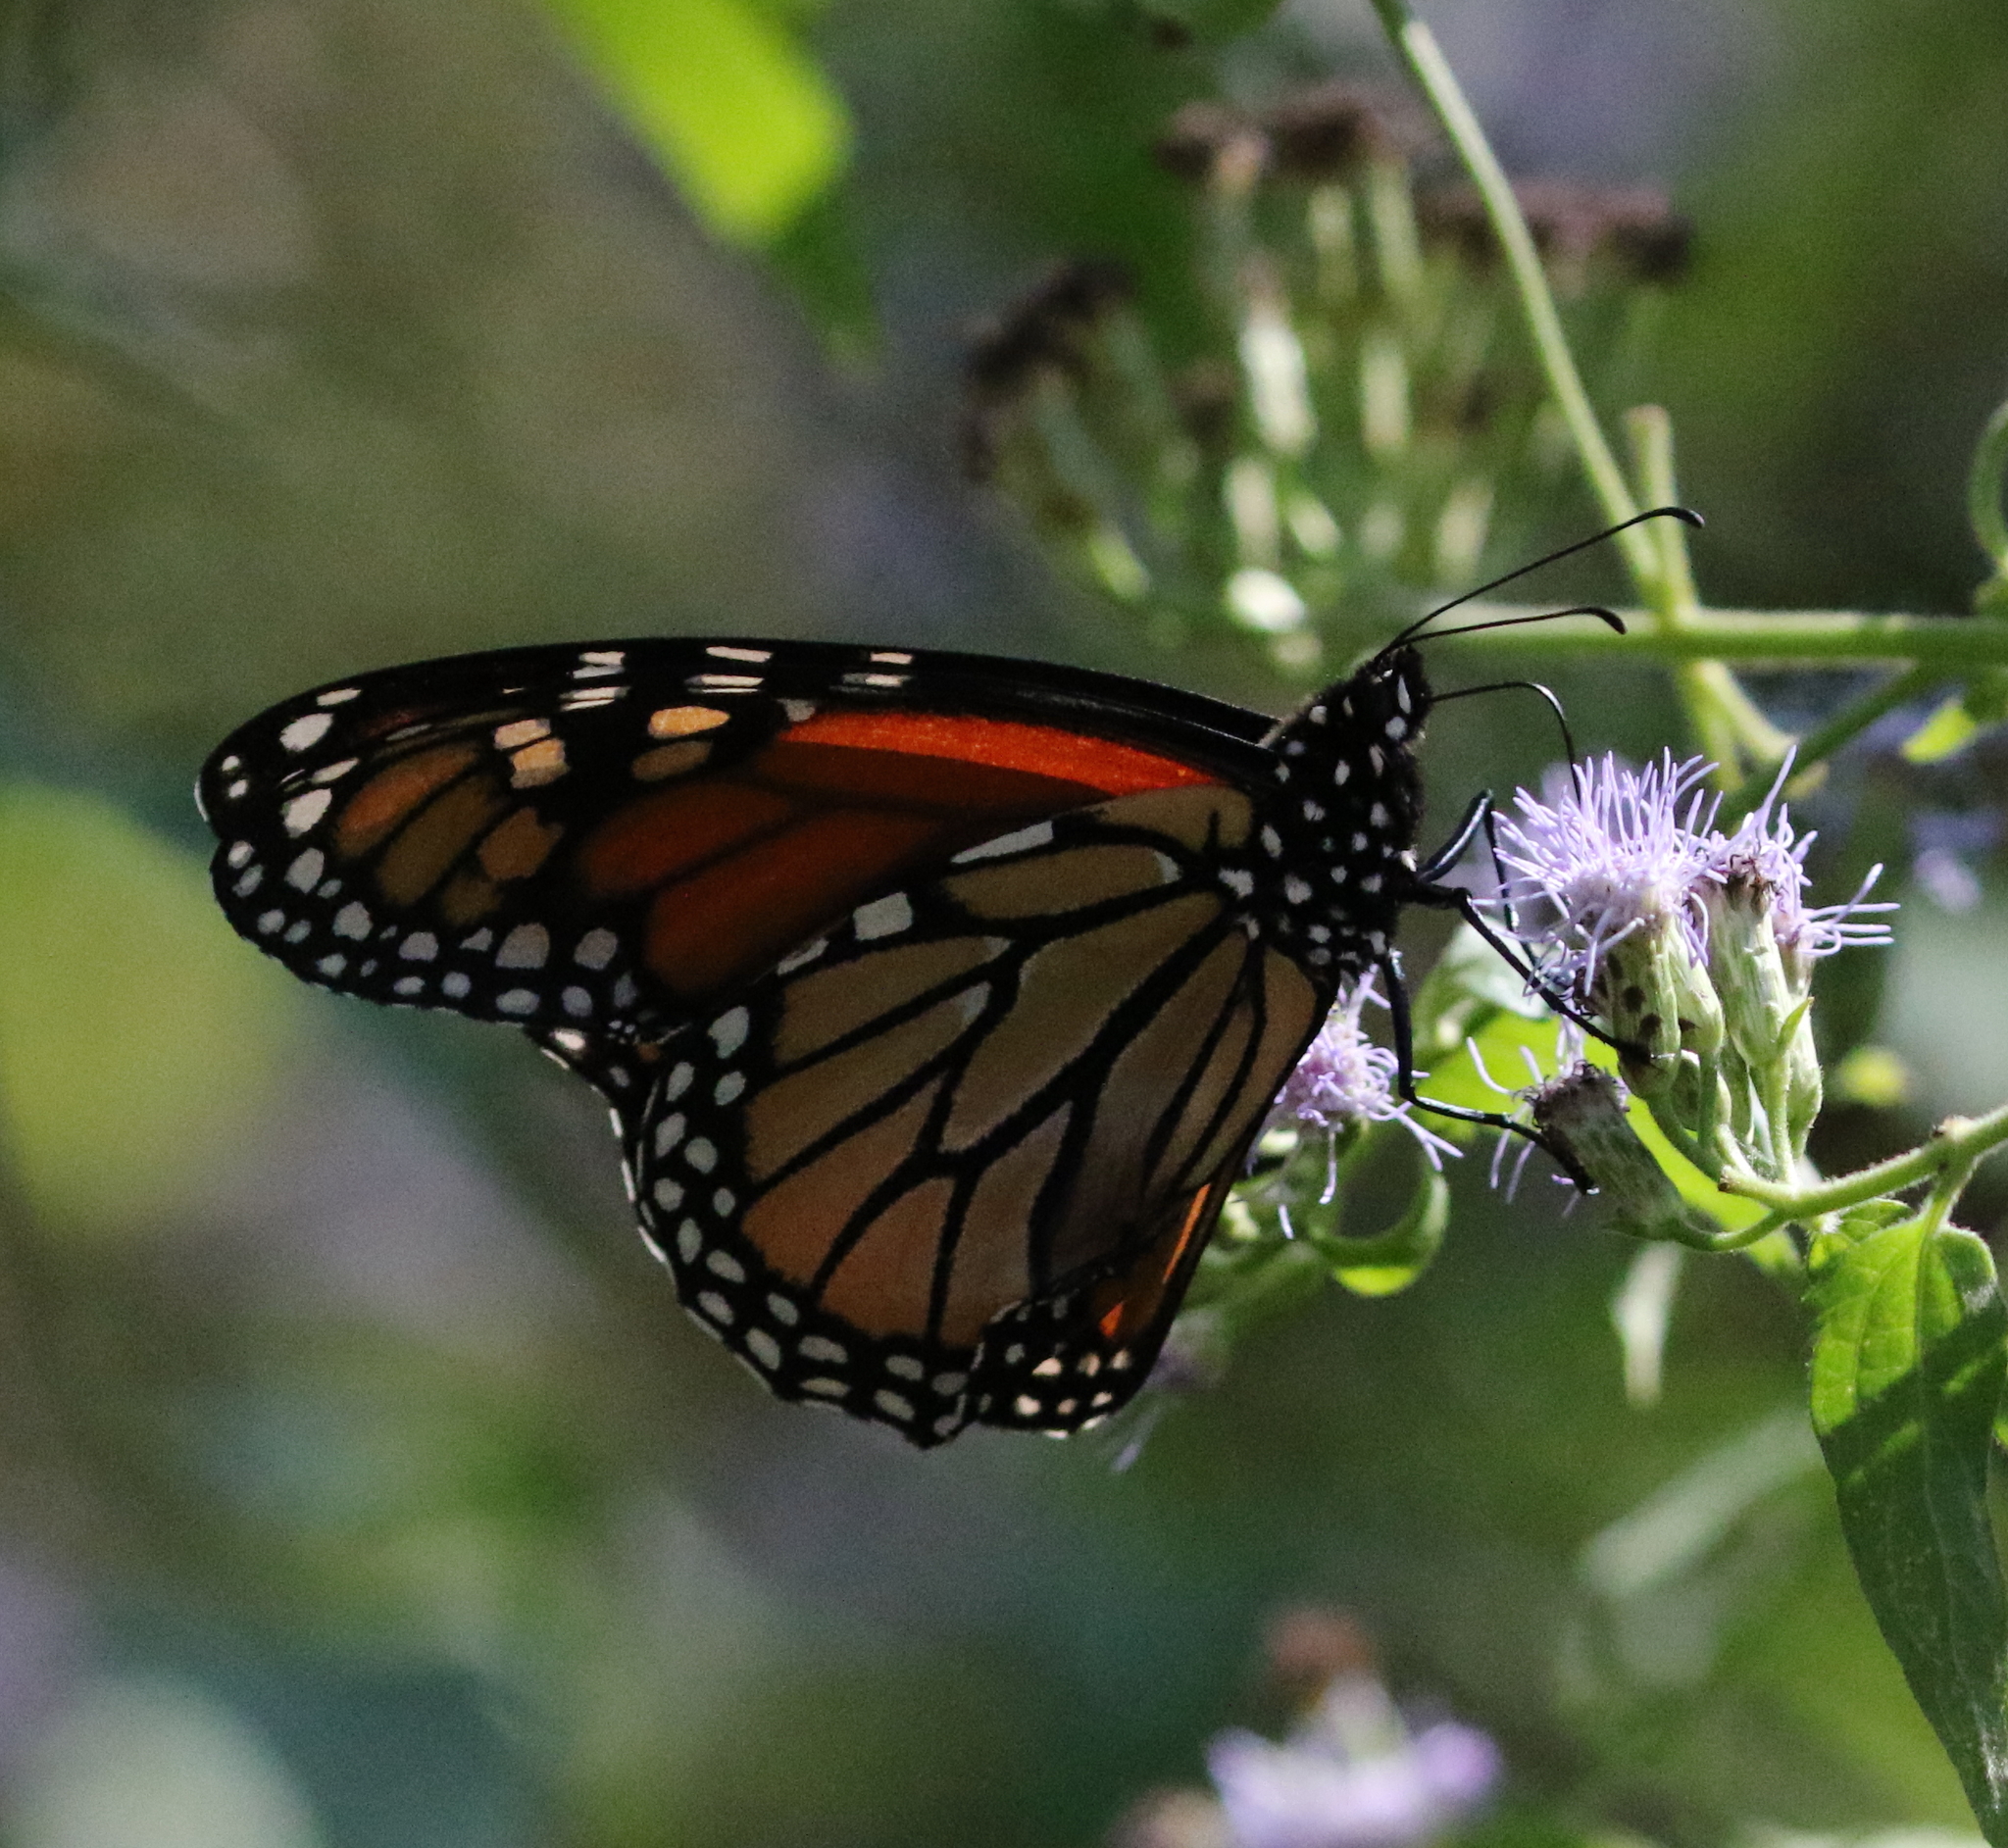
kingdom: Animalia
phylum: Arthropoda
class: Insecta
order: Lepidoptera
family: Nymphalidae
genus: Danaus
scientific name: Danaus plexippus
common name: Monarch
